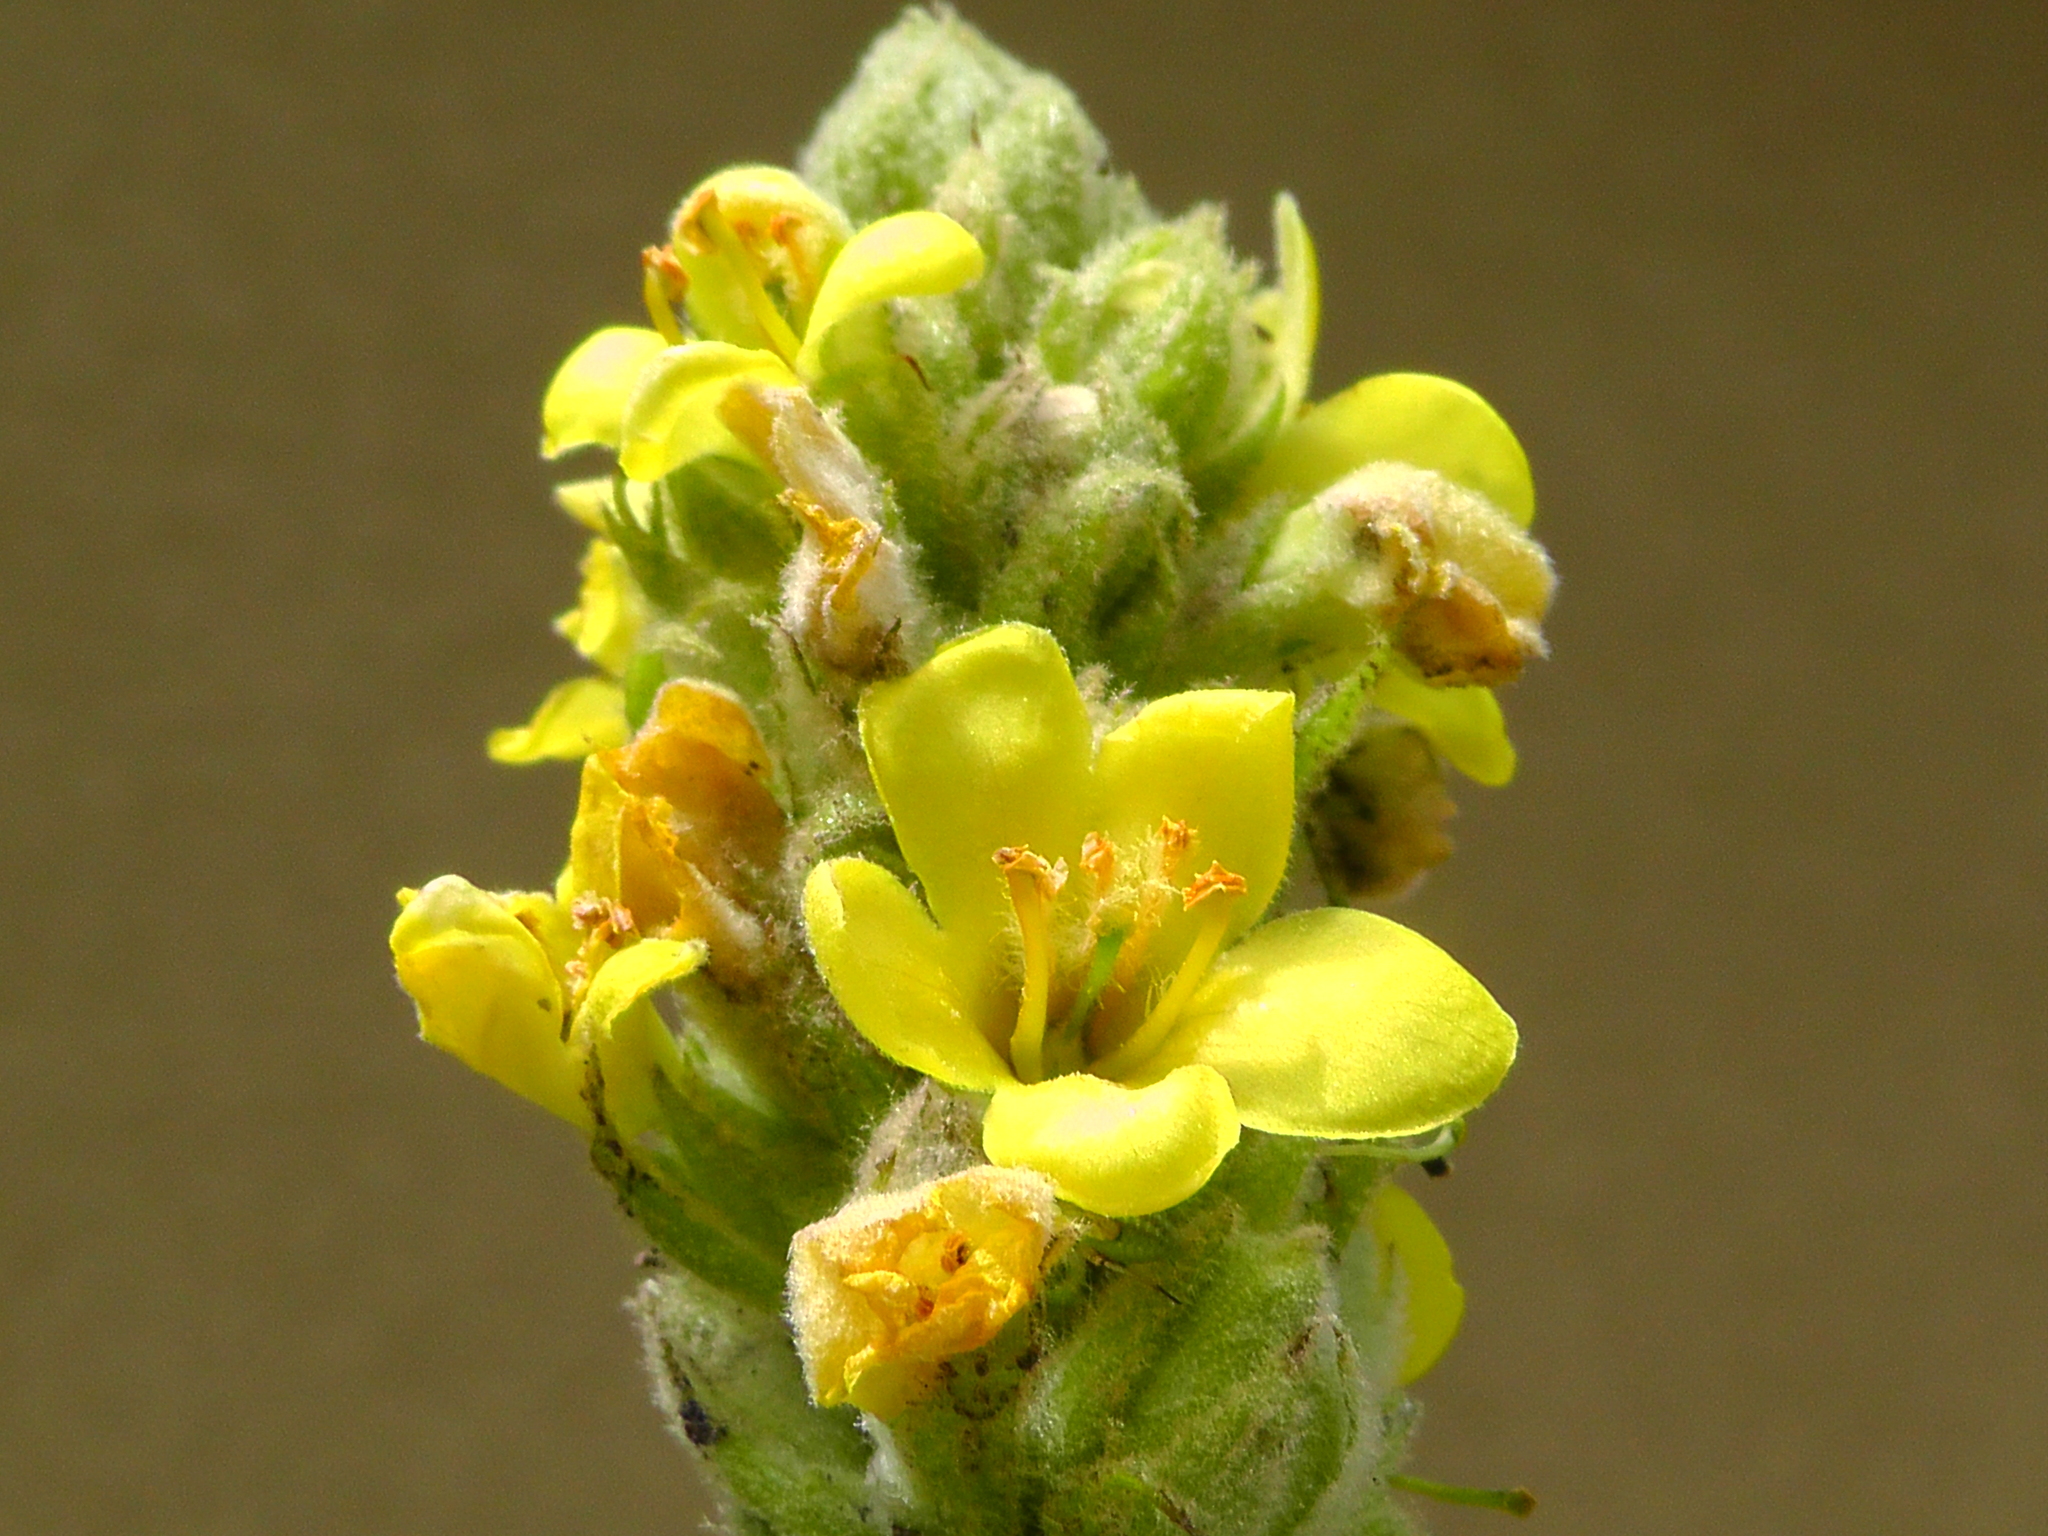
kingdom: Plantae
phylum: Tracheophyta
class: Magnoliopsida
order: Lamiales
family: Scrophulariaceae
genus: Verbascum
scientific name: Verbascum thapsus
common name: Common mullein
